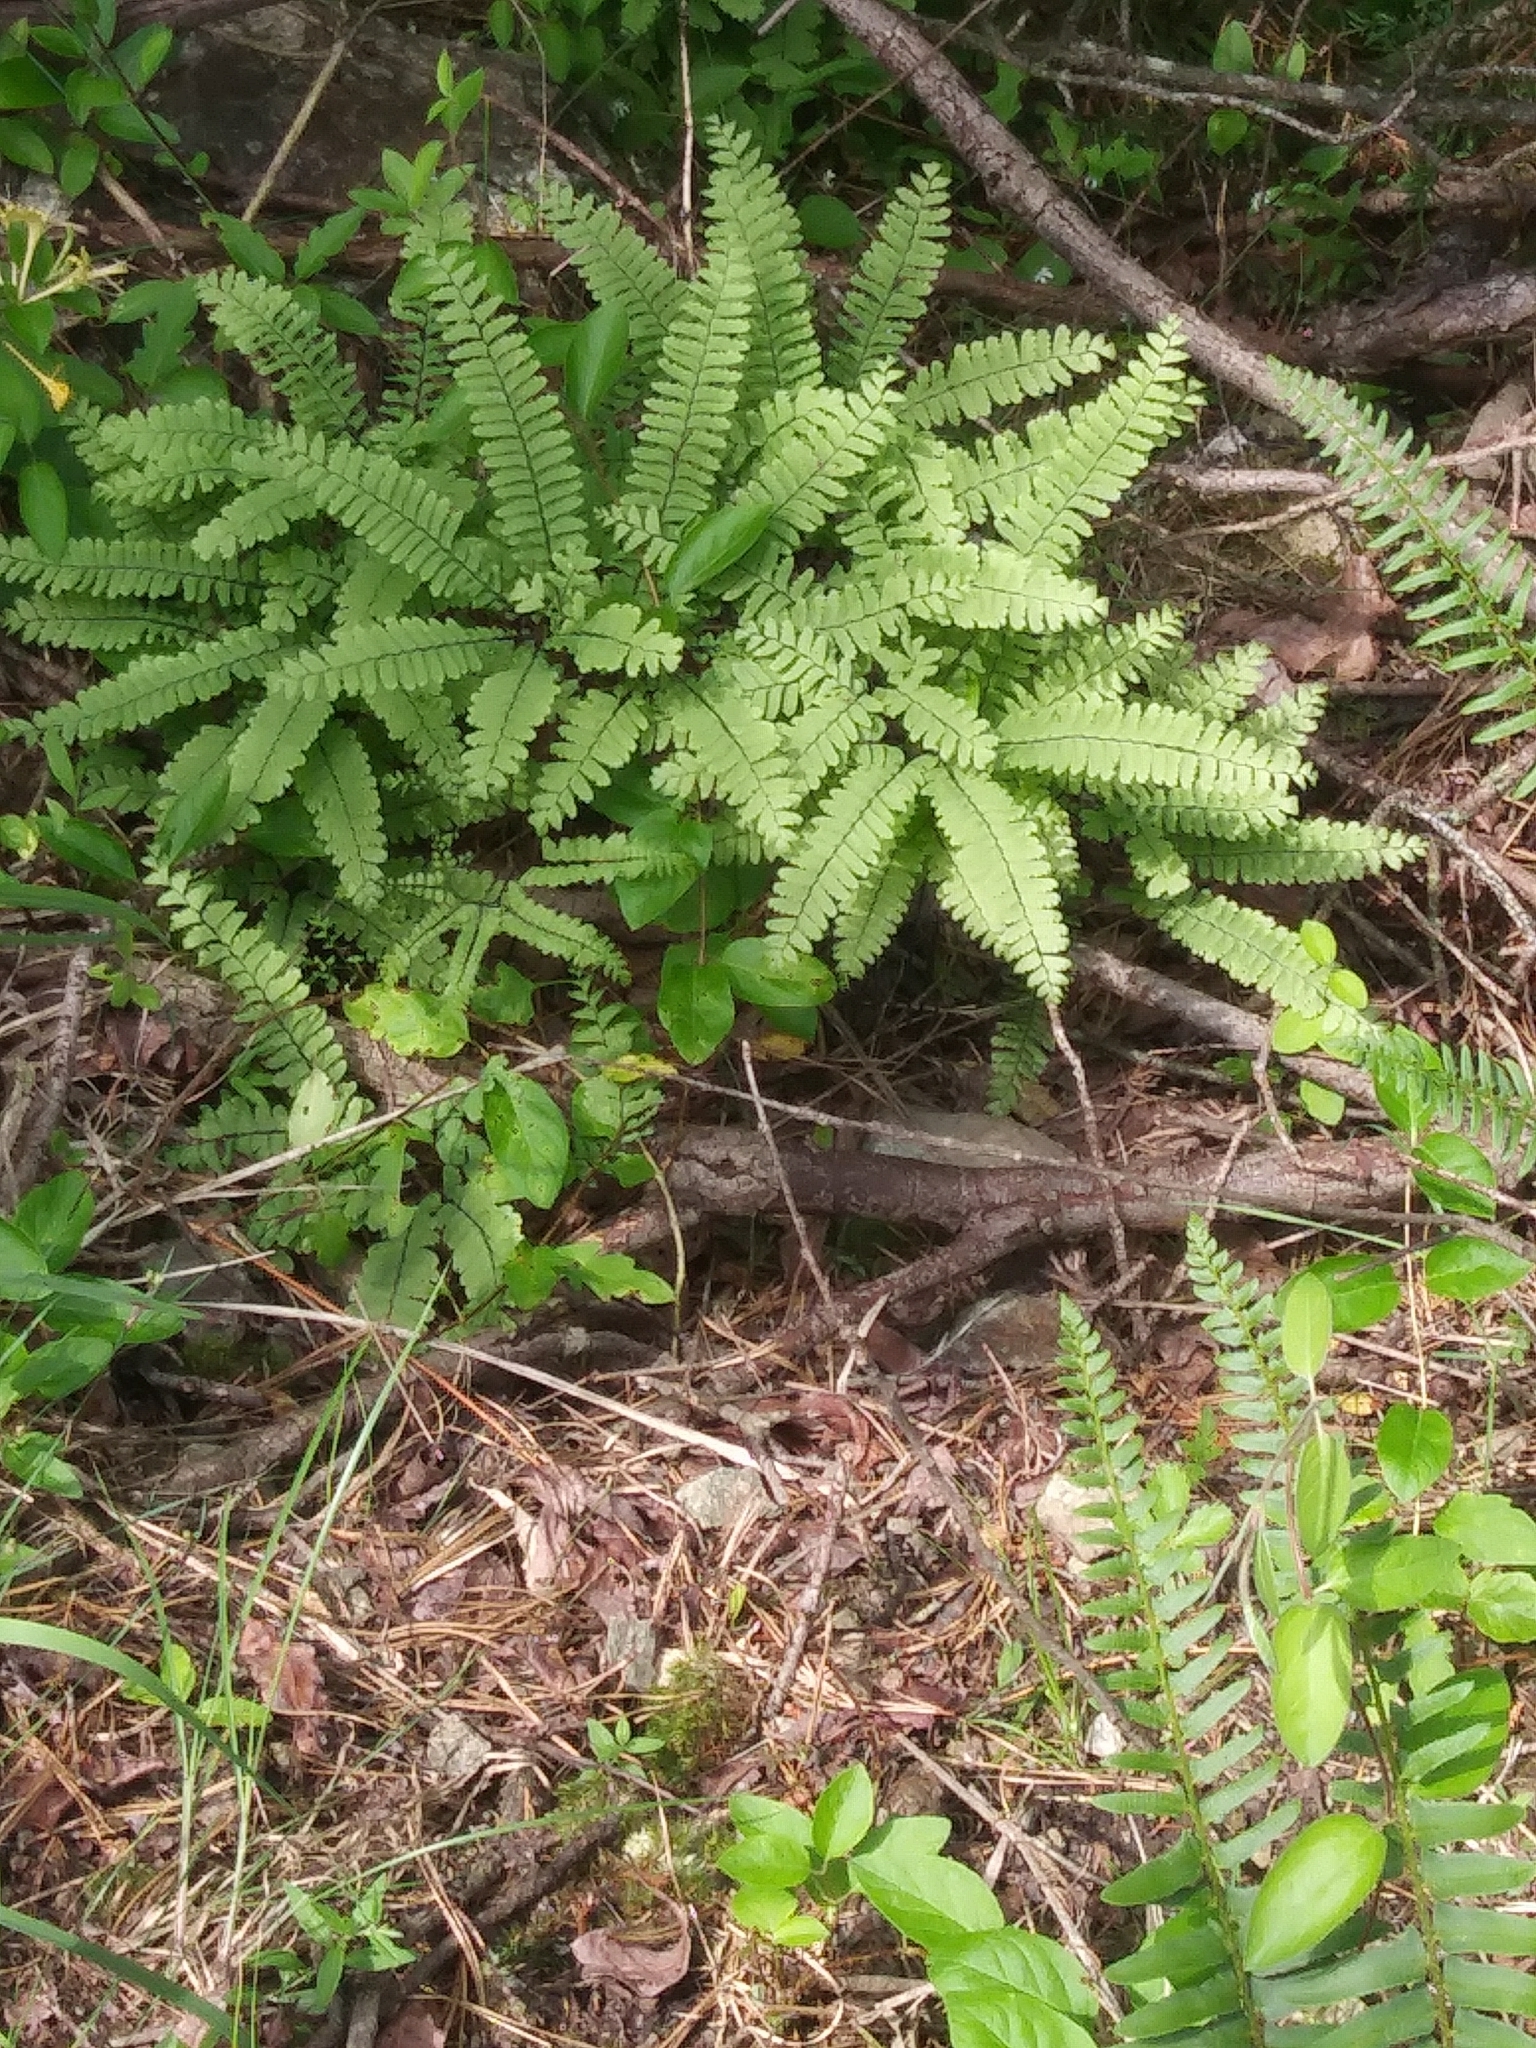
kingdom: Plantae
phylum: Tracheophyta
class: Polypodiopsida
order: Polypodiales
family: Pteridaceae
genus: Adiantum
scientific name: Adiantum pedatum
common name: Five-finger fern
